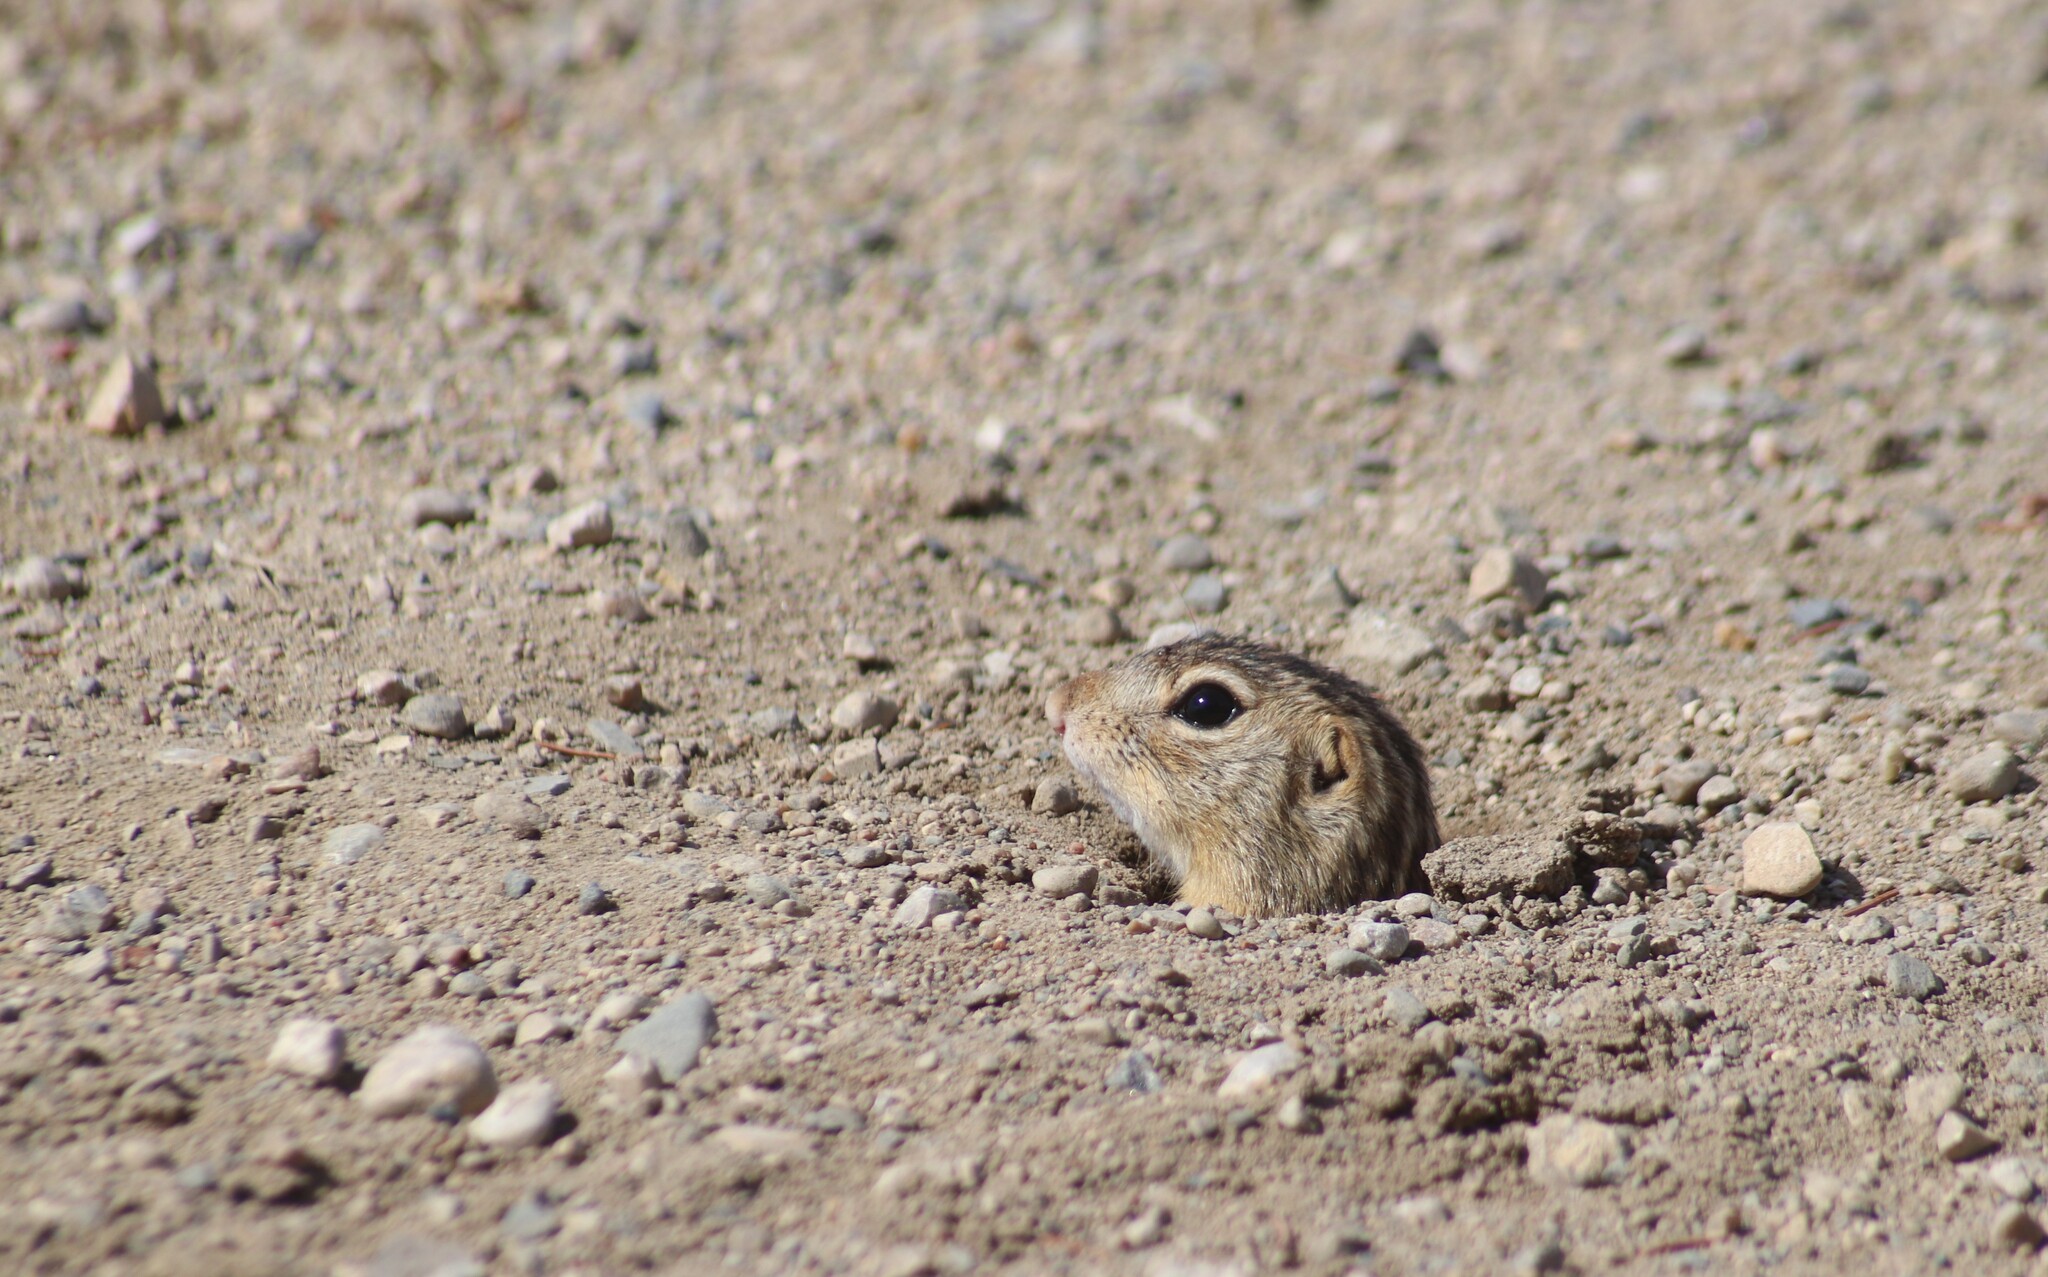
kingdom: Animalia
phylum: Chordata
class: Mammalia
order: Rodentia
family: Sciuridae
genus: Ictidomys
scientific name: Ictidomys tridecemlineatus
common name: Thirteen-lined ground squirrel
